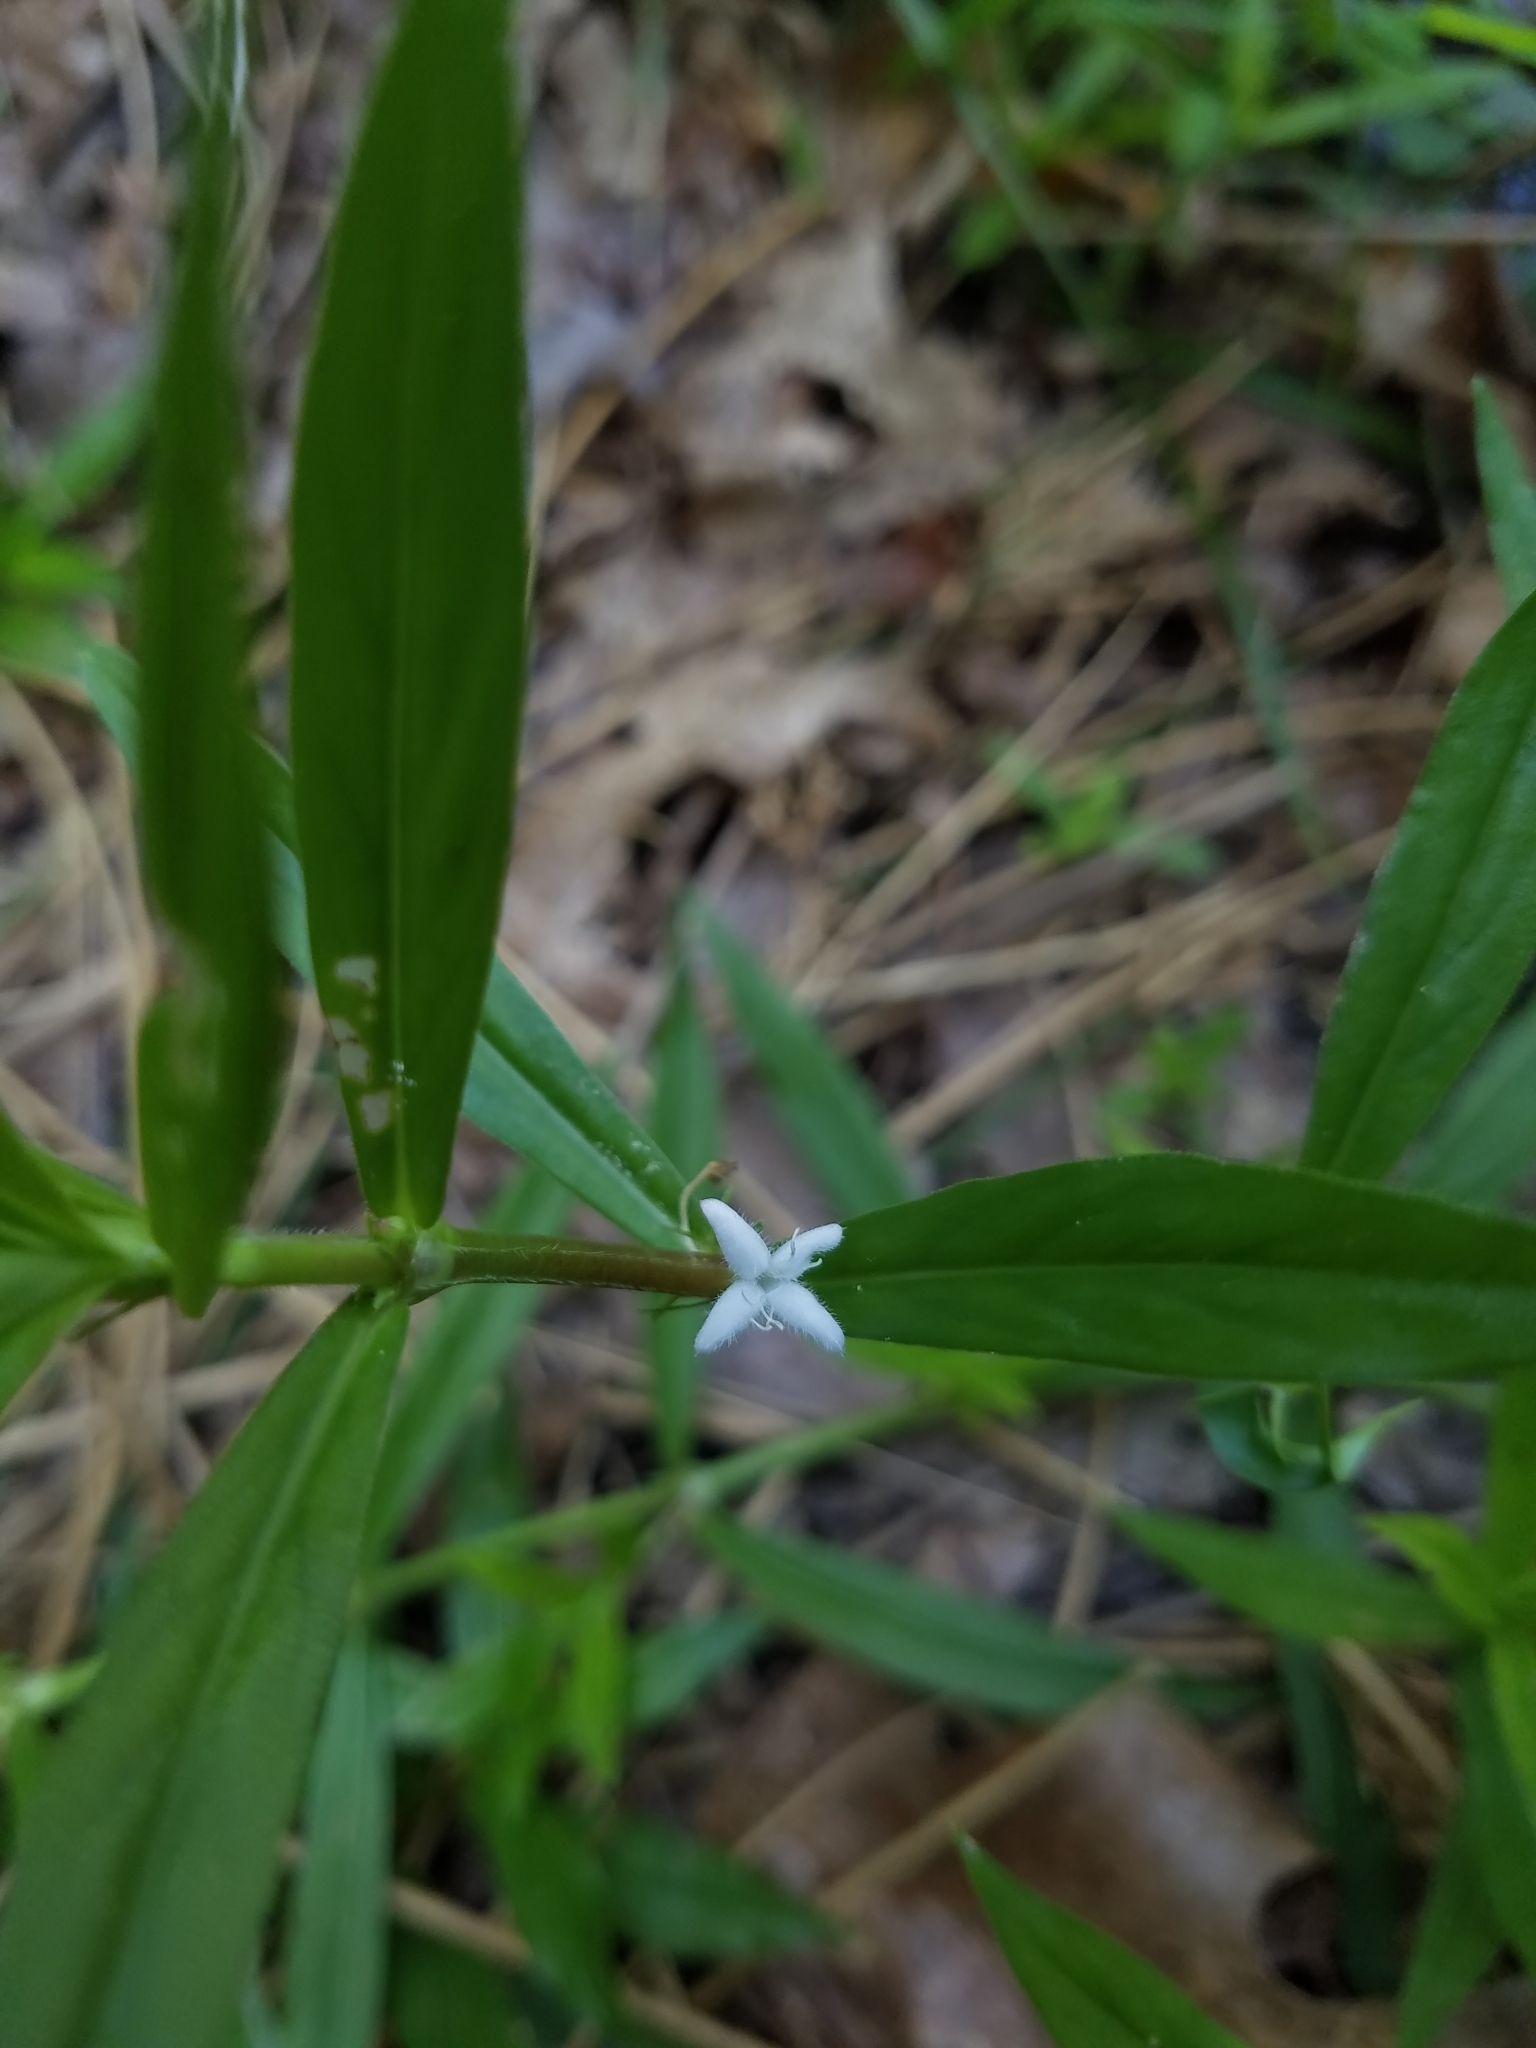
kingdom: Plantae
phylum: Tracheophyta
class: Magnoliopsida
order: Gentianales
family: Rubiaceae
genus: Diodia
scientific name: Diodia virginiana
